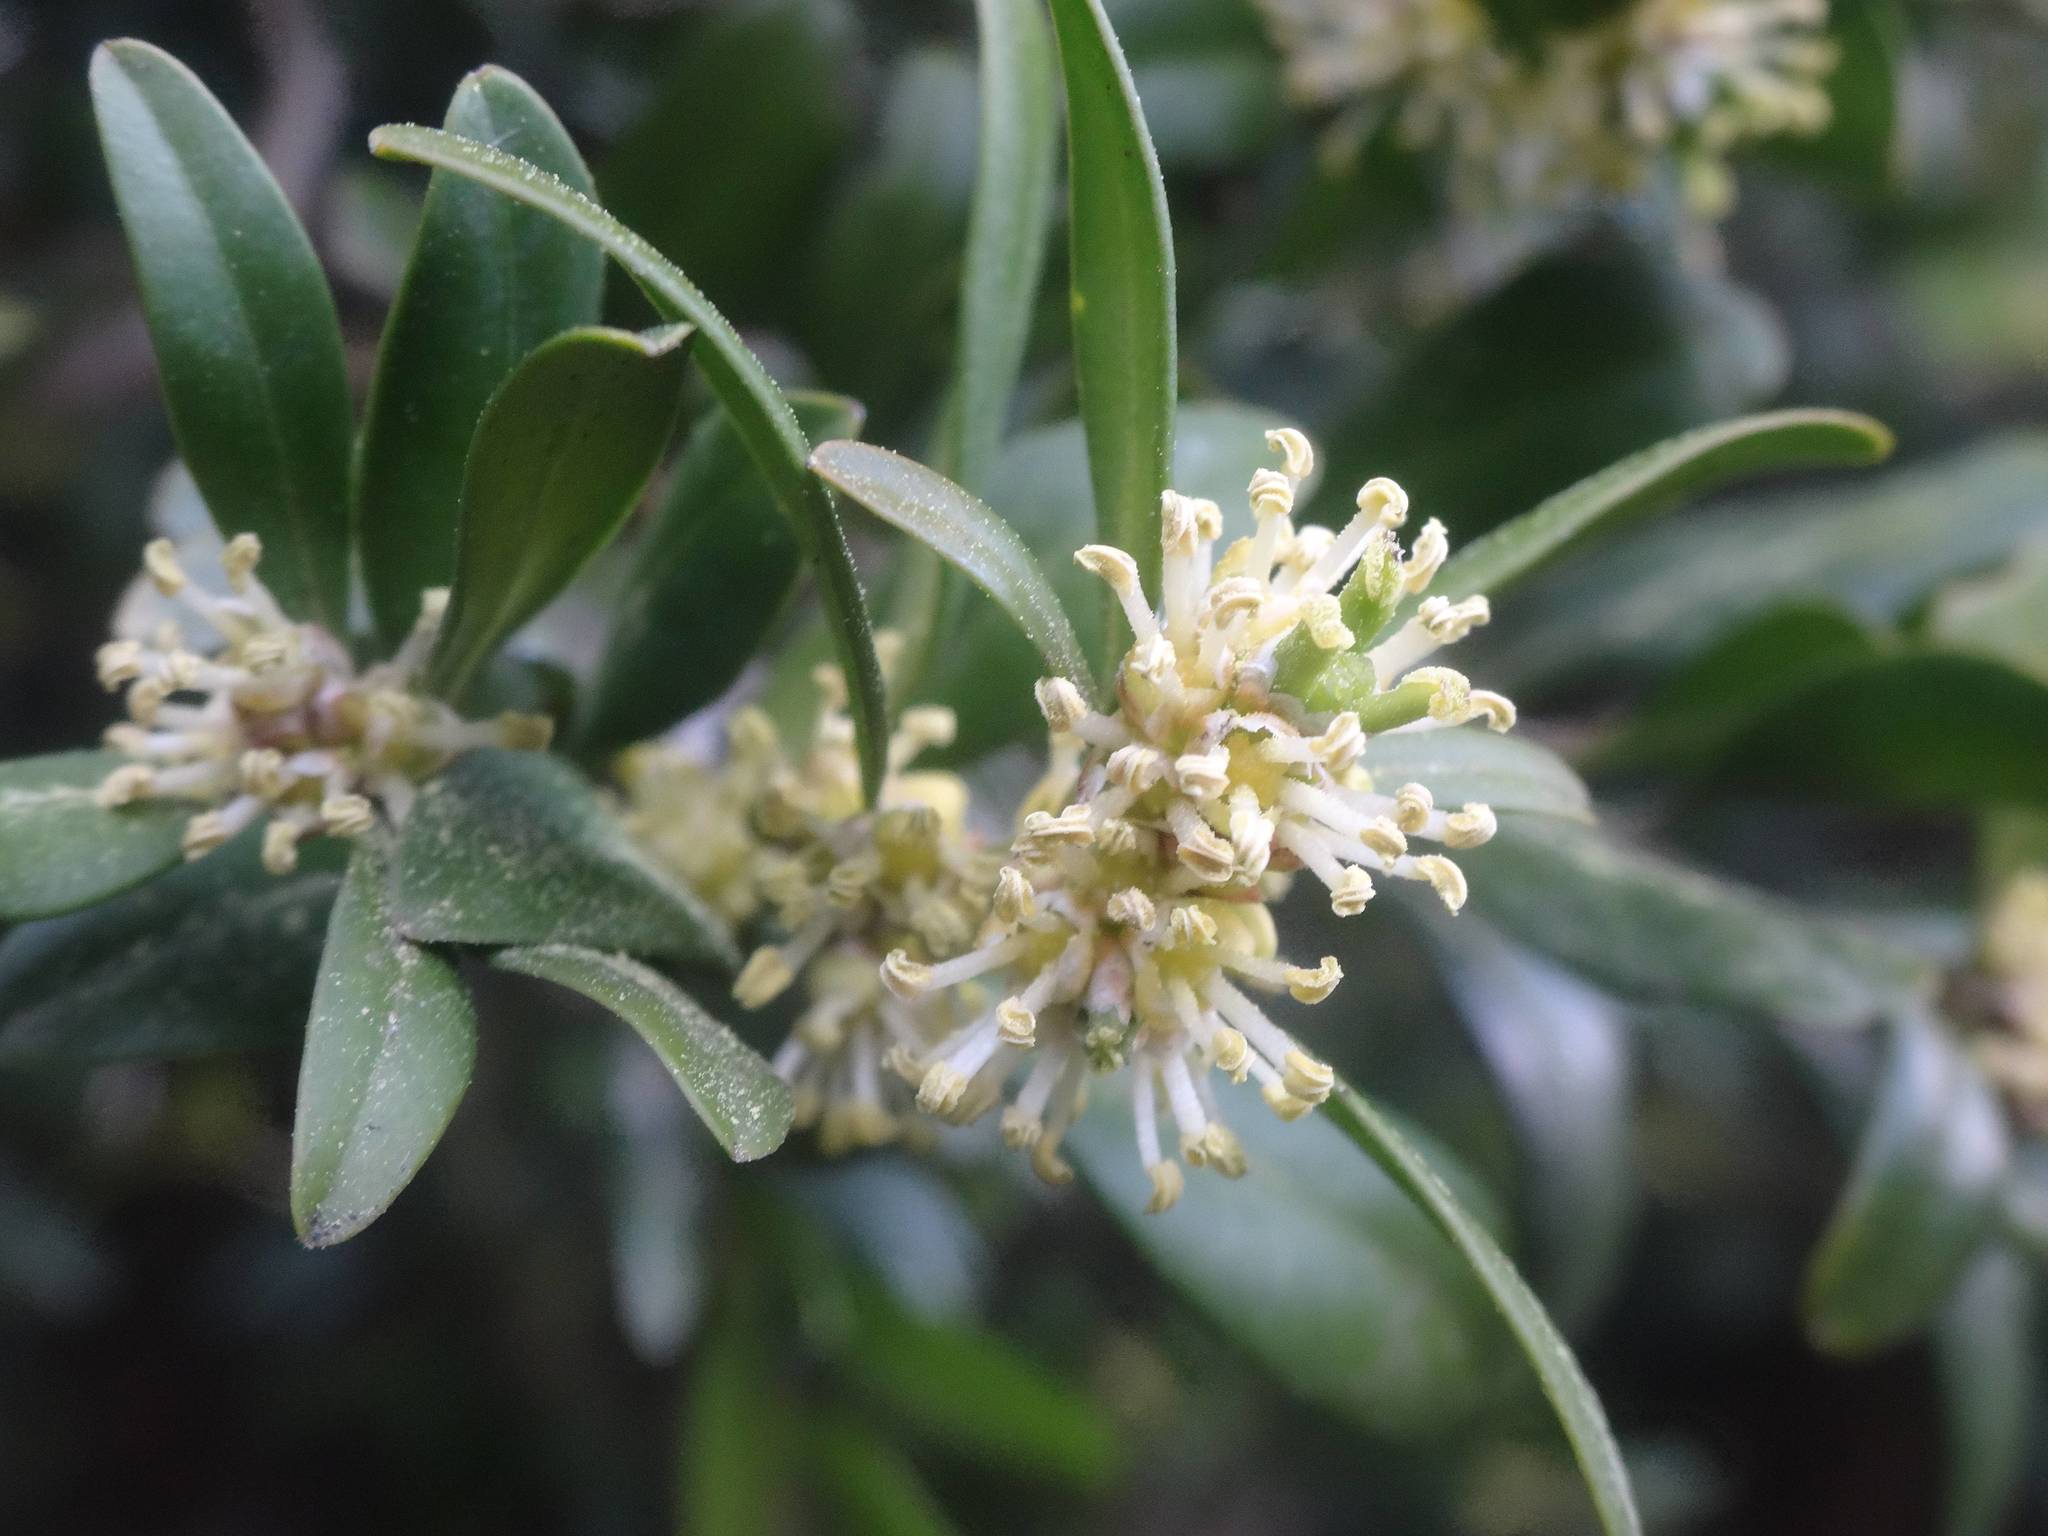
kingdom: Plantae
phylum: Tracheophyta
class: Magnoliopsida
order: Buxales
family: Buxaceae
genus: Buxus
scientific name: Buxus sempervirens
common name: Box
